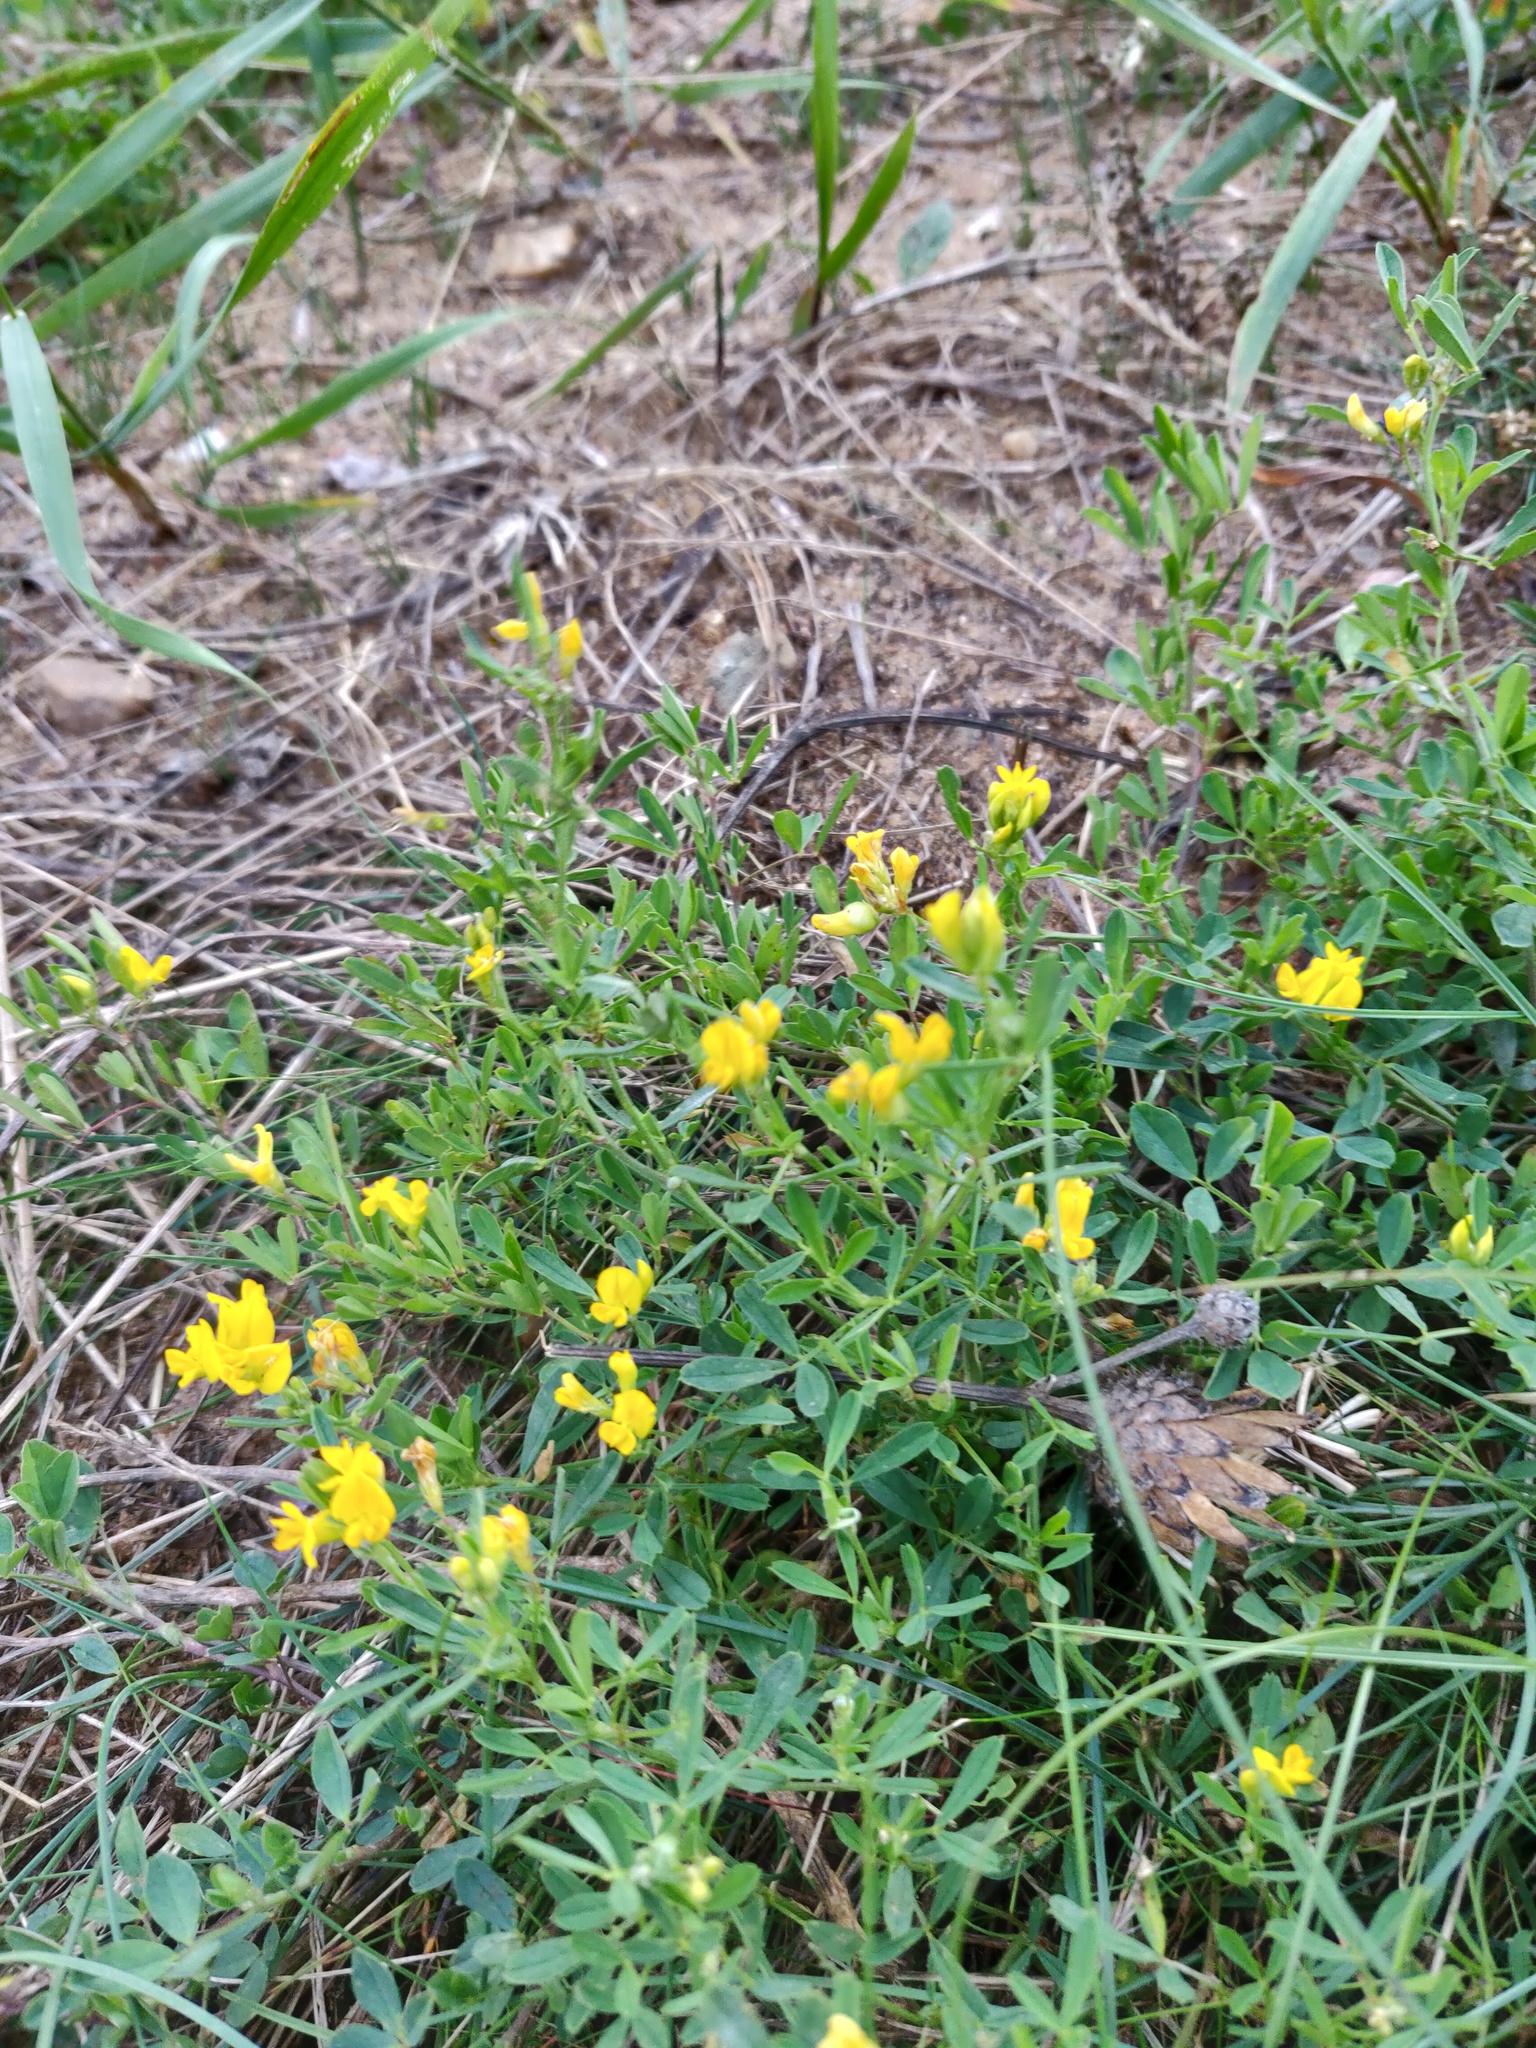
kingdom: Plantae
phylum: Tracheophyta
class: Magnoliopsida
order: Fabales
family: Fabaceae
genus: Medicago
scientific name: Medicago falcata
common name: Sickle medick
